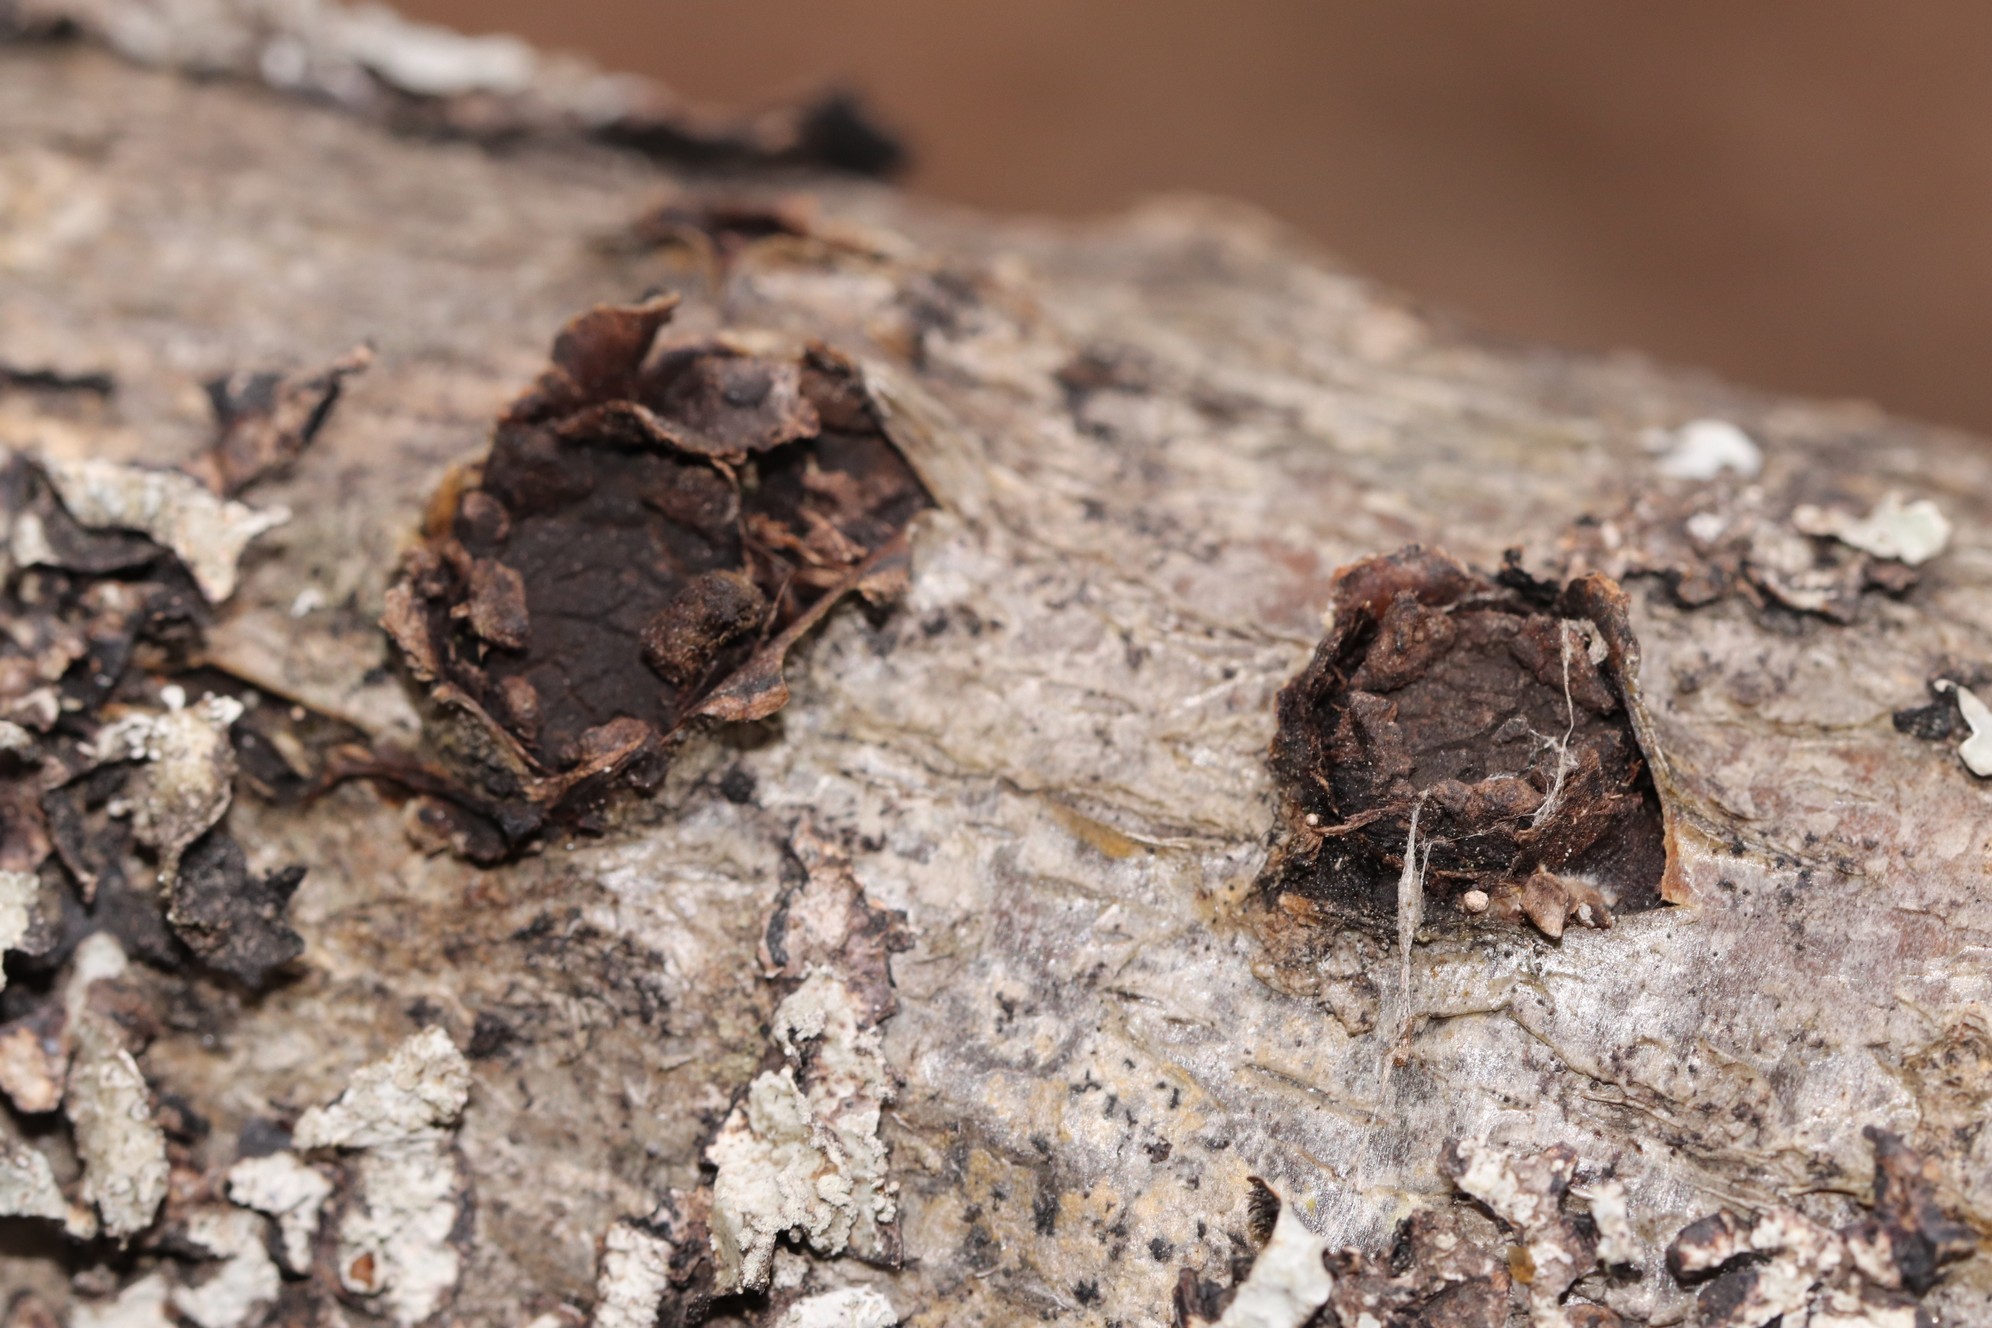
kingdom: Fungi
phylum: Ascomycota
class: Sordariomycetes
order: Xylariales
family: Graphostromataceae
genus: Biscogniauxia
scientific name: Biscogniauxia repanda
